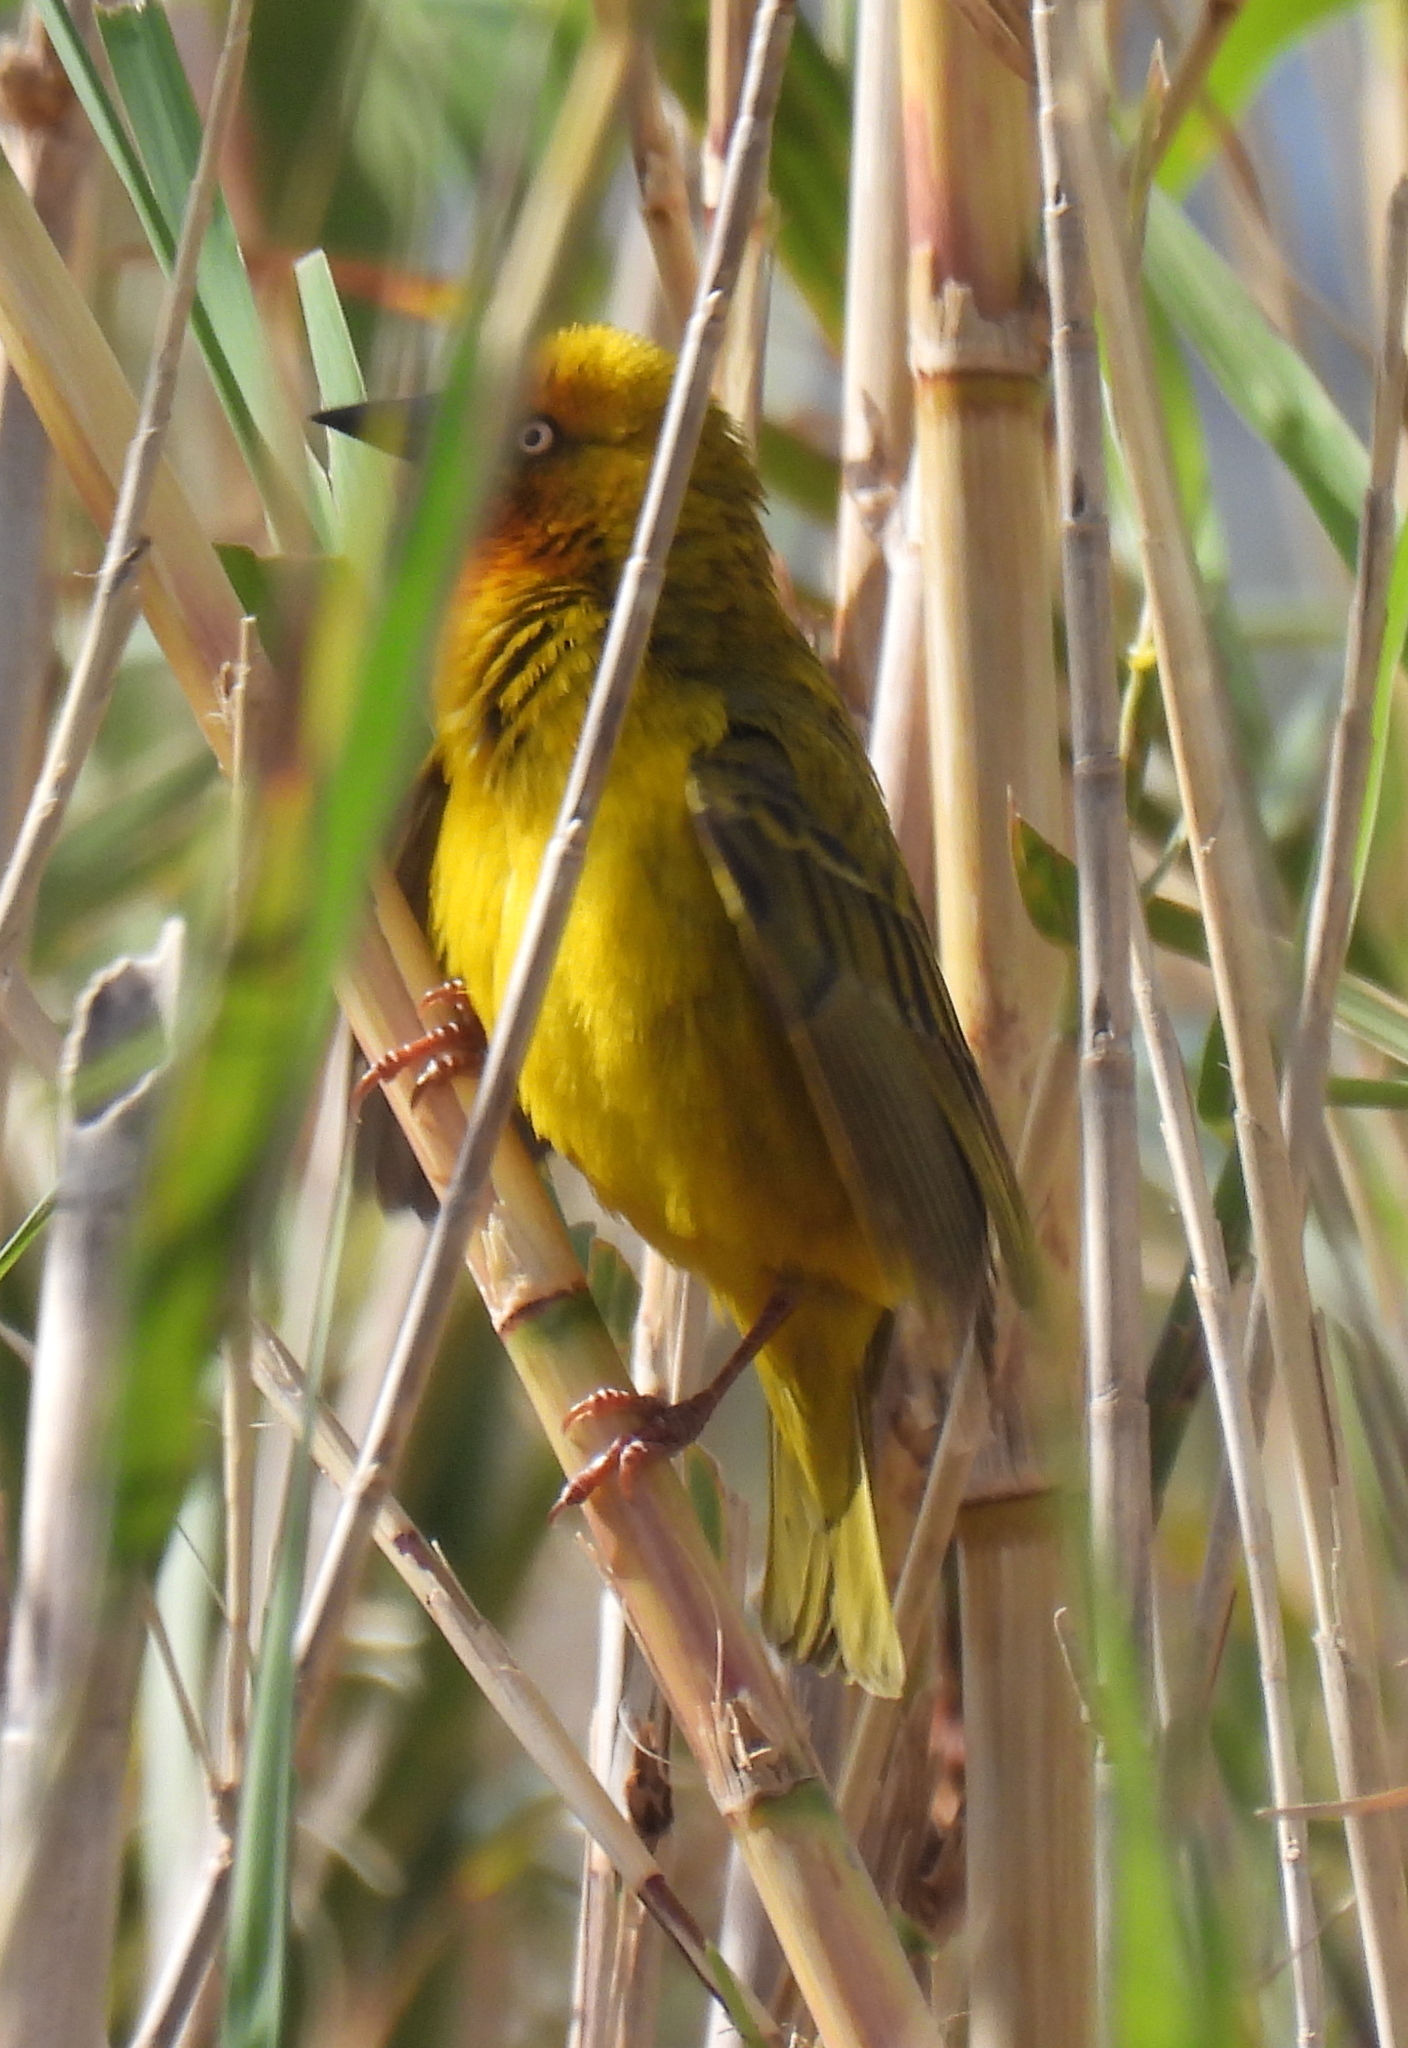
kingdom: Animalia
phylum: Chordata
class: Aves
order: Passeriformes
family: Ploceidae
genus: Ploceus
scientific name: Ploceus capensis
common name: Cape weaver
